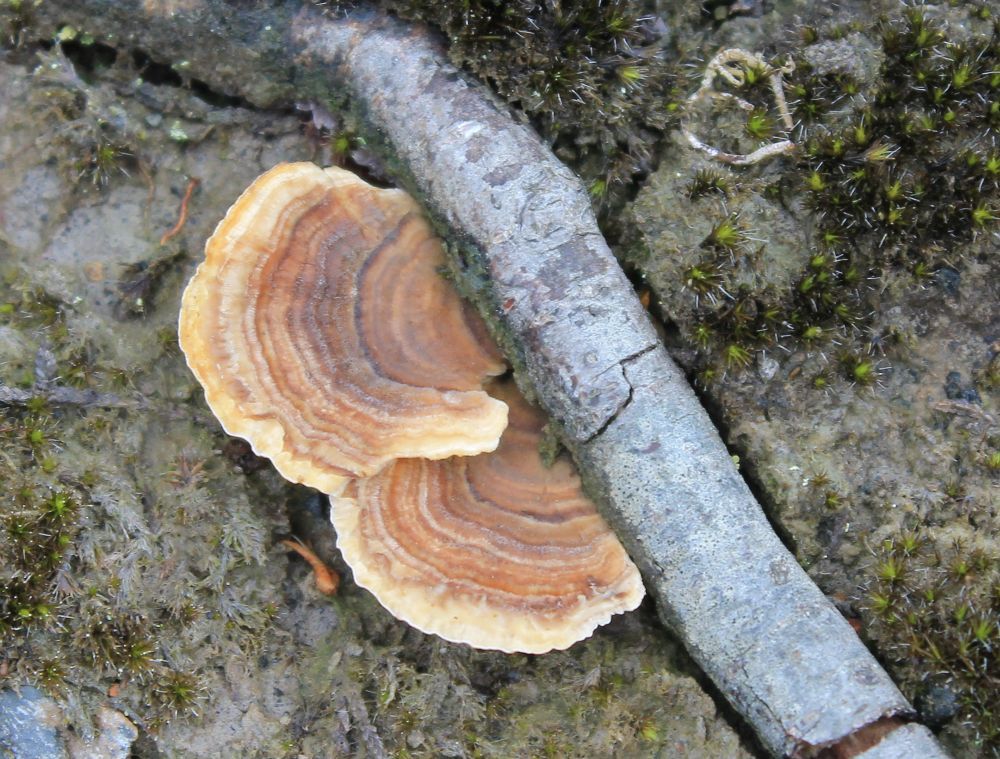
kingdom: Fungi
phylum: Basidiomycota
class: Agaricomycetes
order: Polyporales
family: Polyporaceae
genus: Trametes
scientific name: Trametes versicolor
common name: Turkeytail
